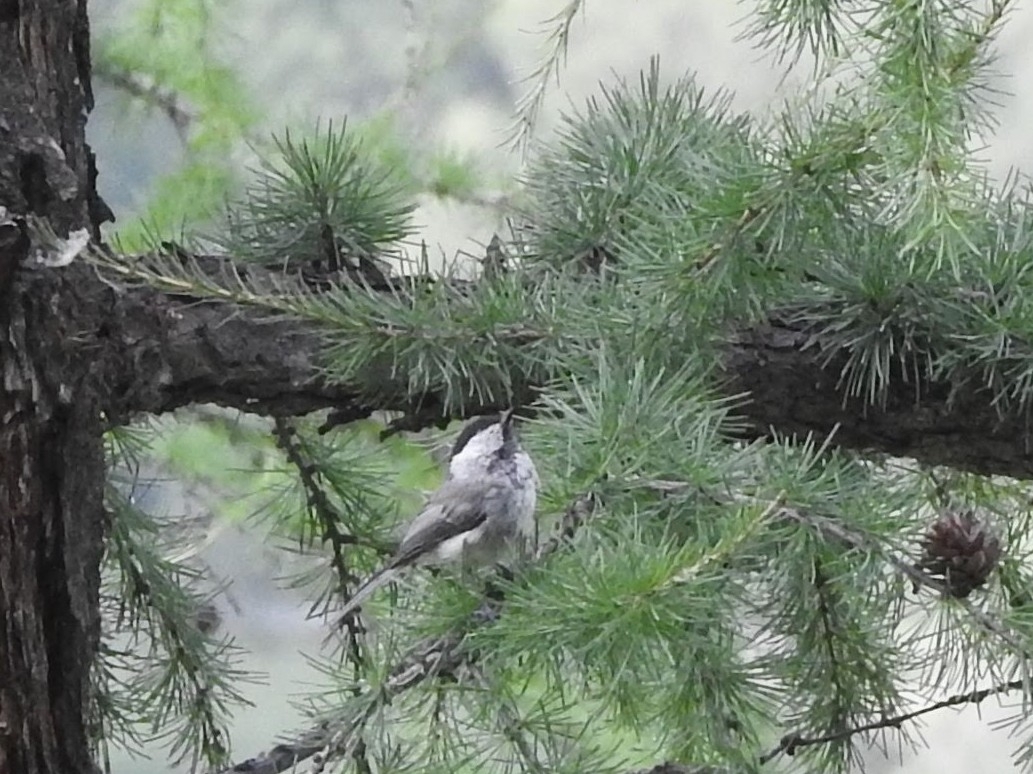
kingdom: Animalia
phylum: Chordata
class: Aves
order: Passeriformes
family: Paridae
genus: Poecile
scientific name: Poecile montanus
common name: Willow tit
